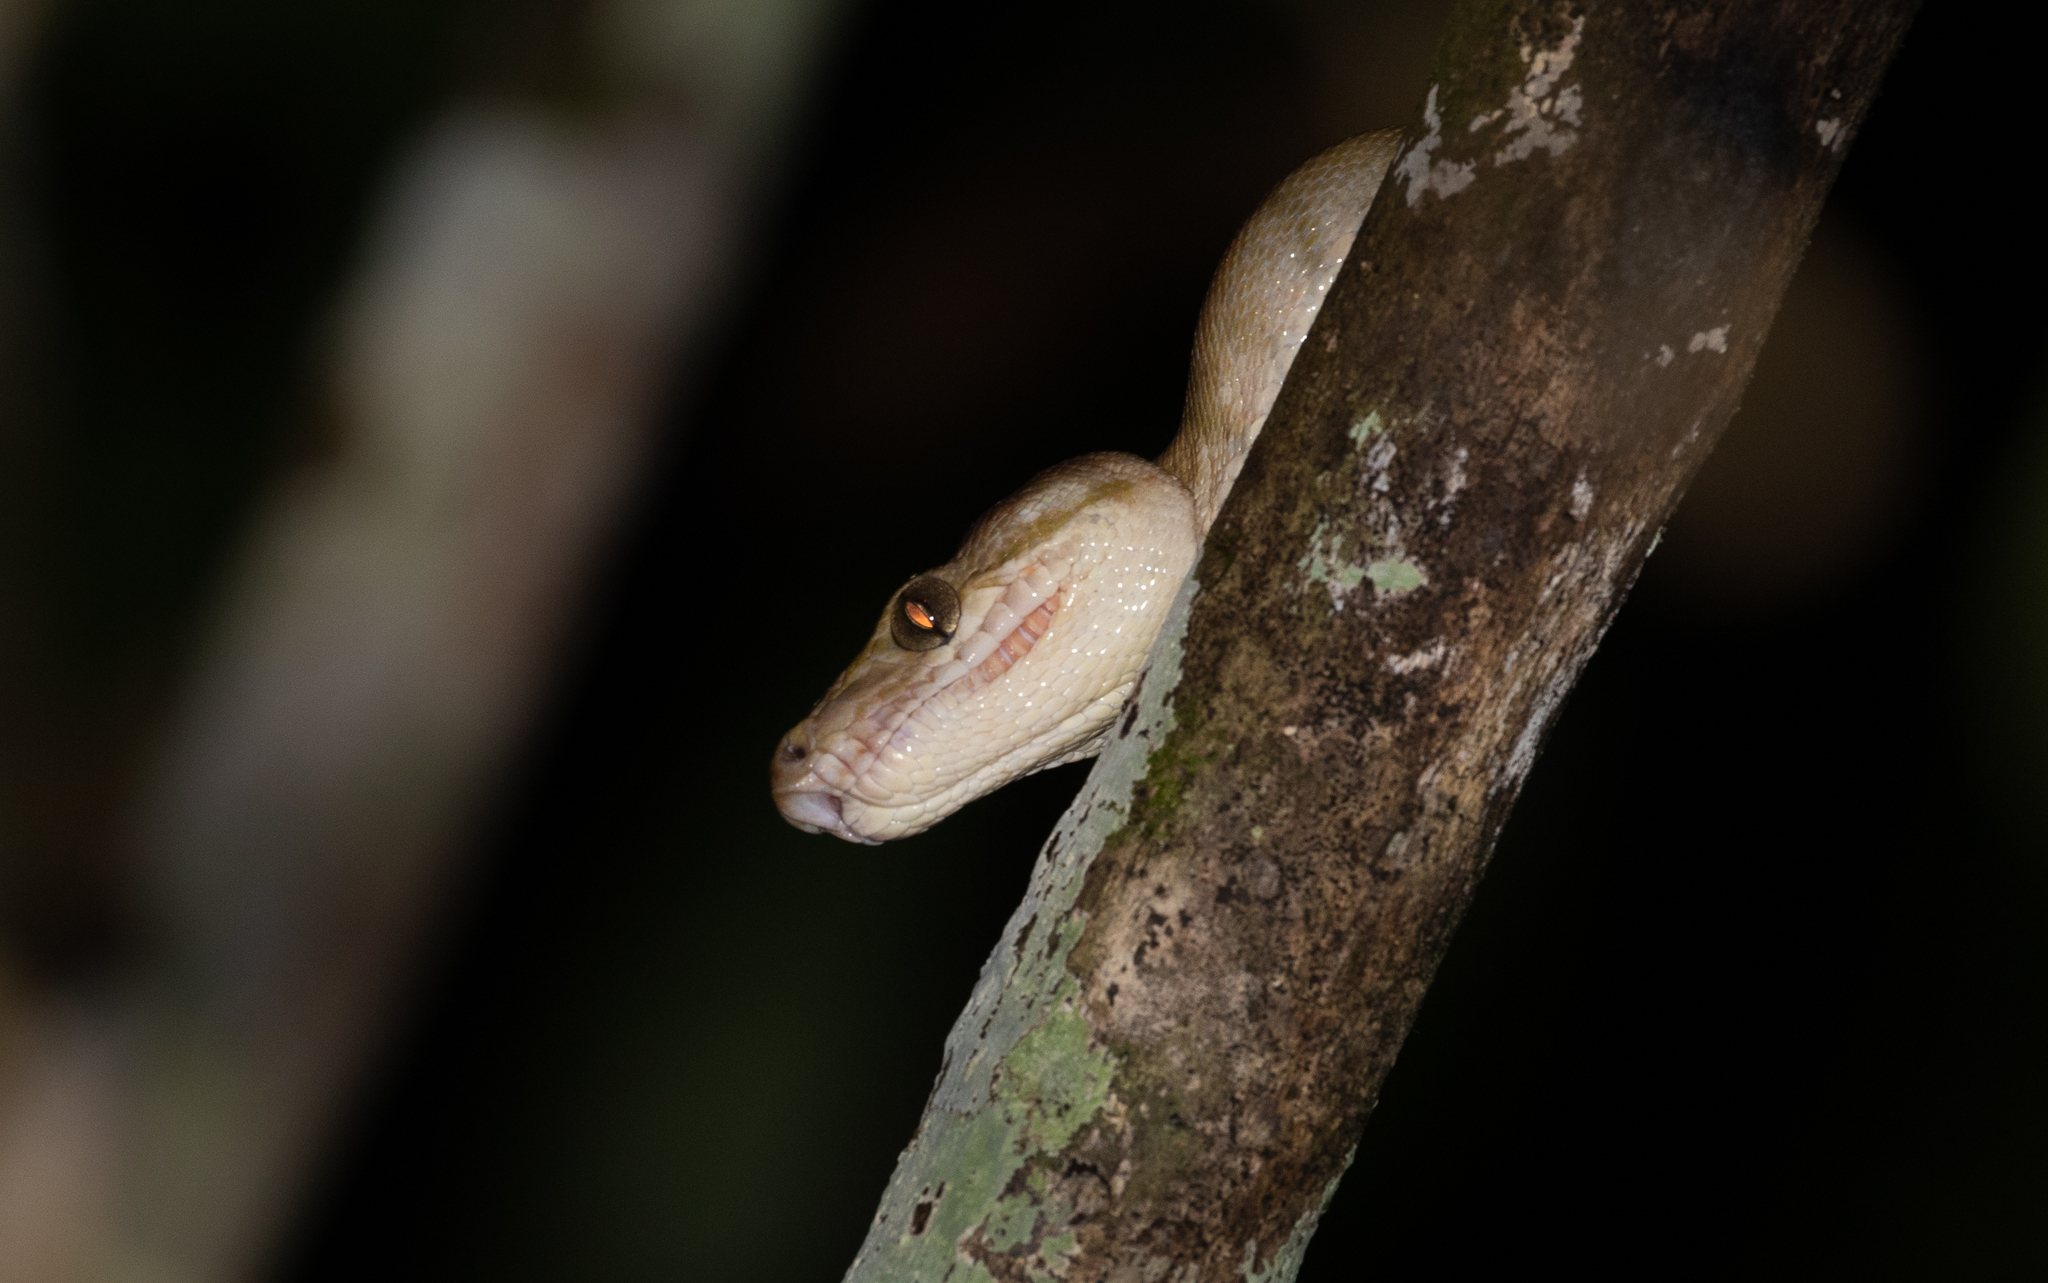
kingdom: Animalia
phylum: Chordata
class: Squamata
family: Boidae
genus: Corallus
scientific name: Corallus hortulana
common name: Garden tree boa
